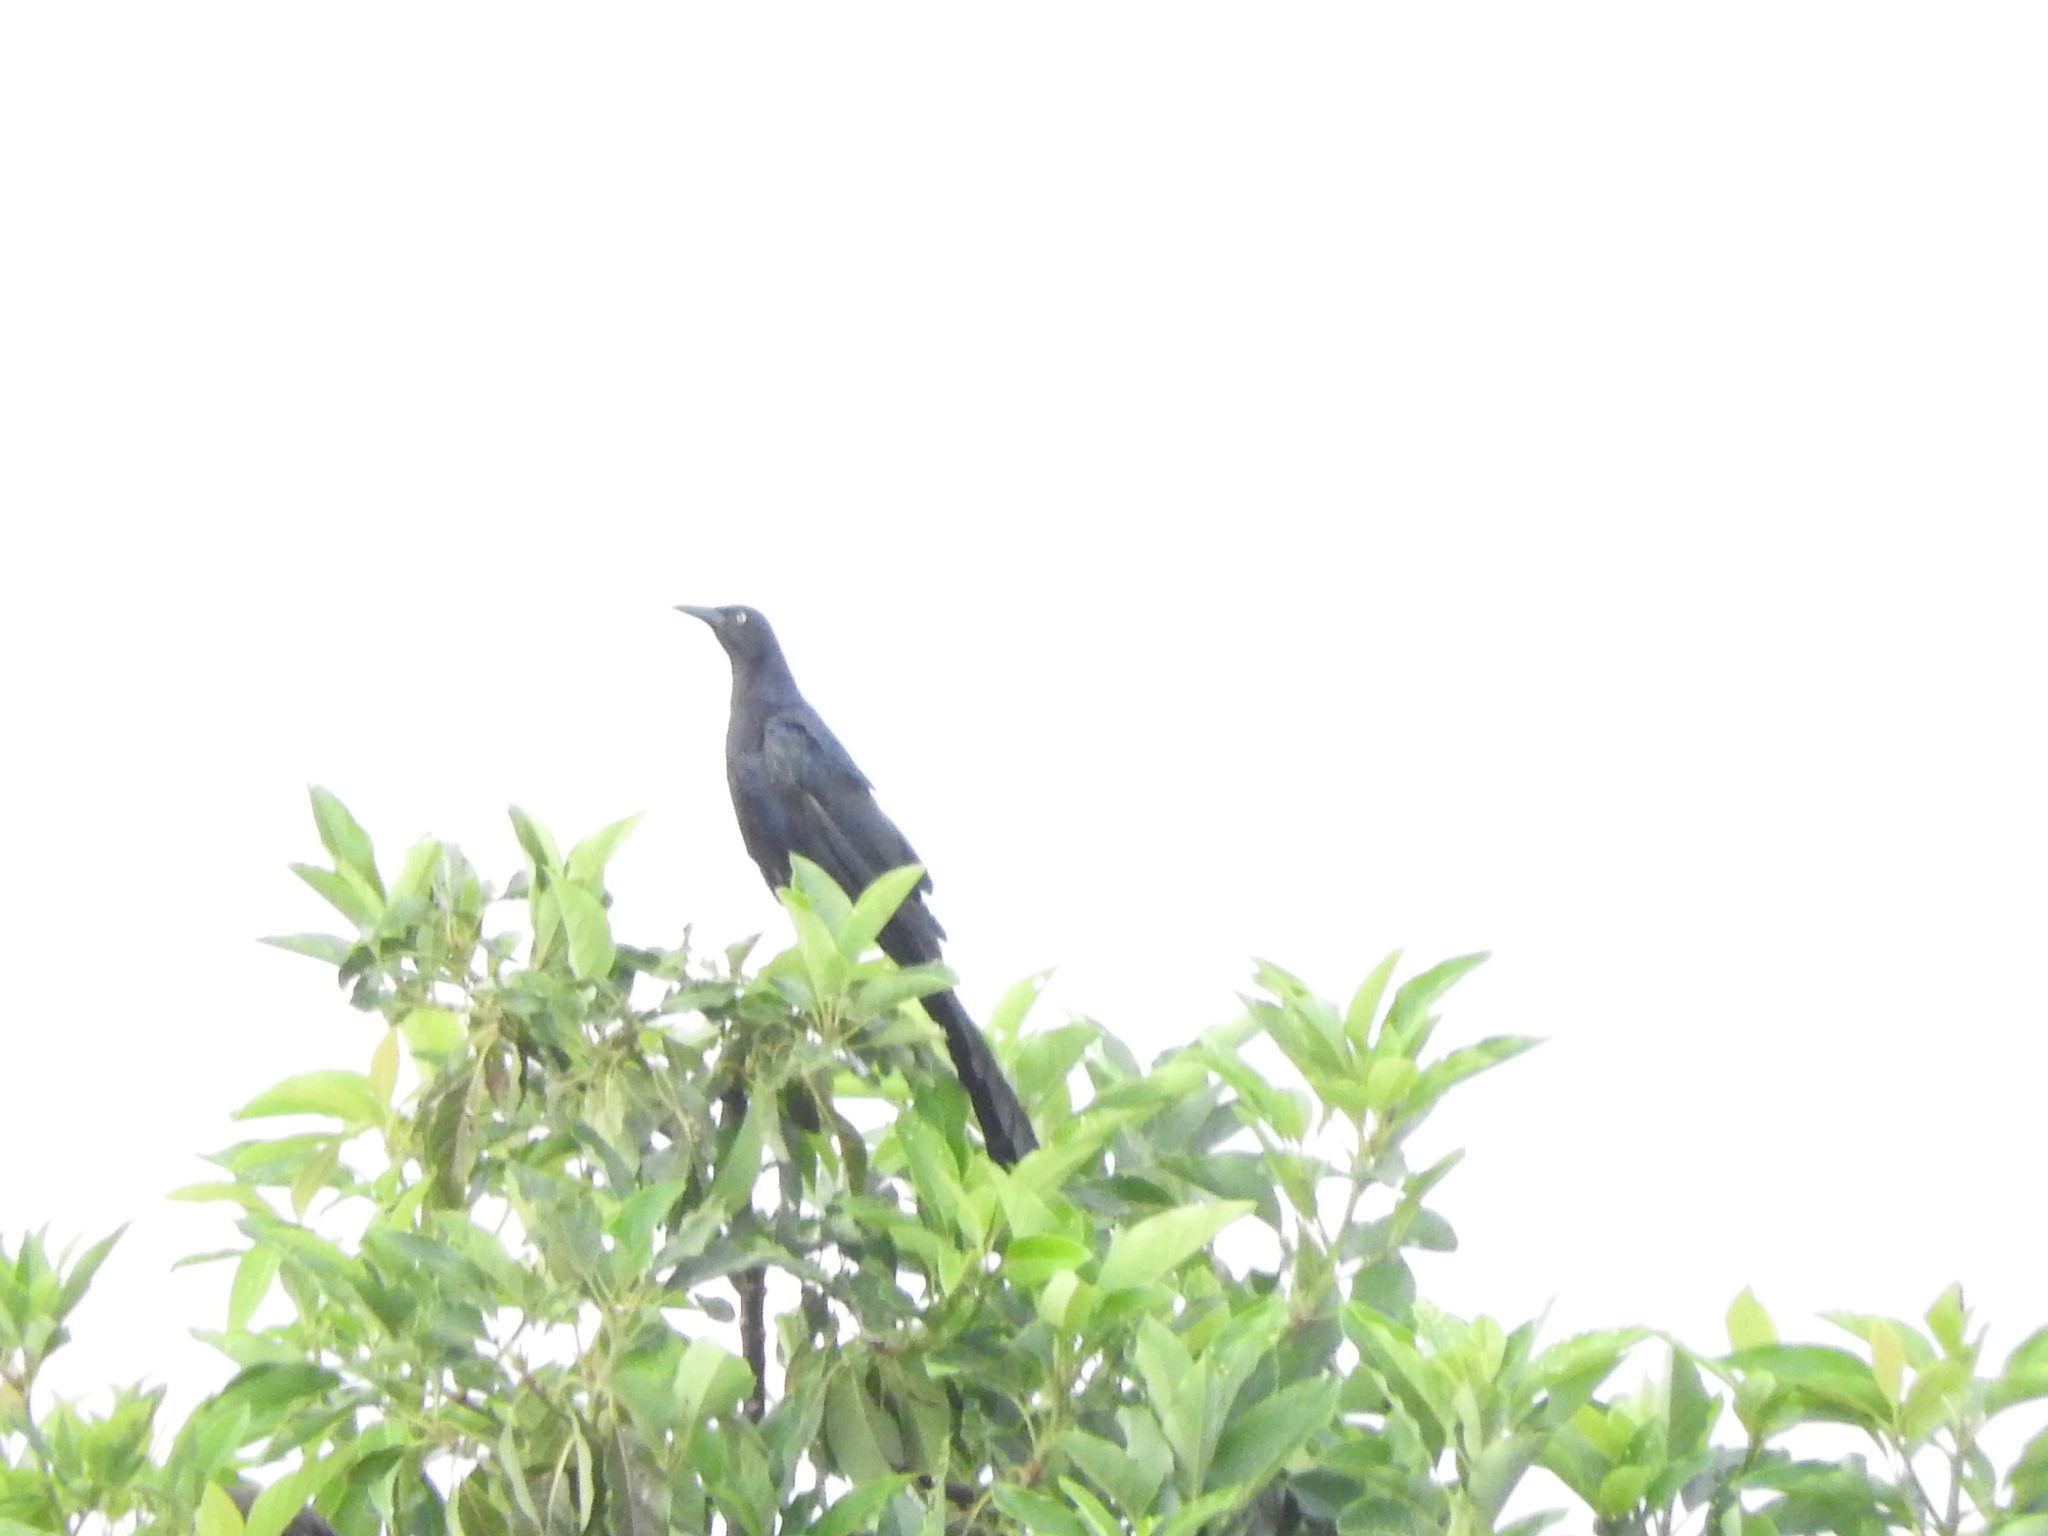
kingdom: Animalia
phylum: Chordata
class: Aves
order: Passeriformes
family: Icteridae
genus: Quiscalus
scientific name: Quiscalus mexicanus
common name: Great-tailed grackle
